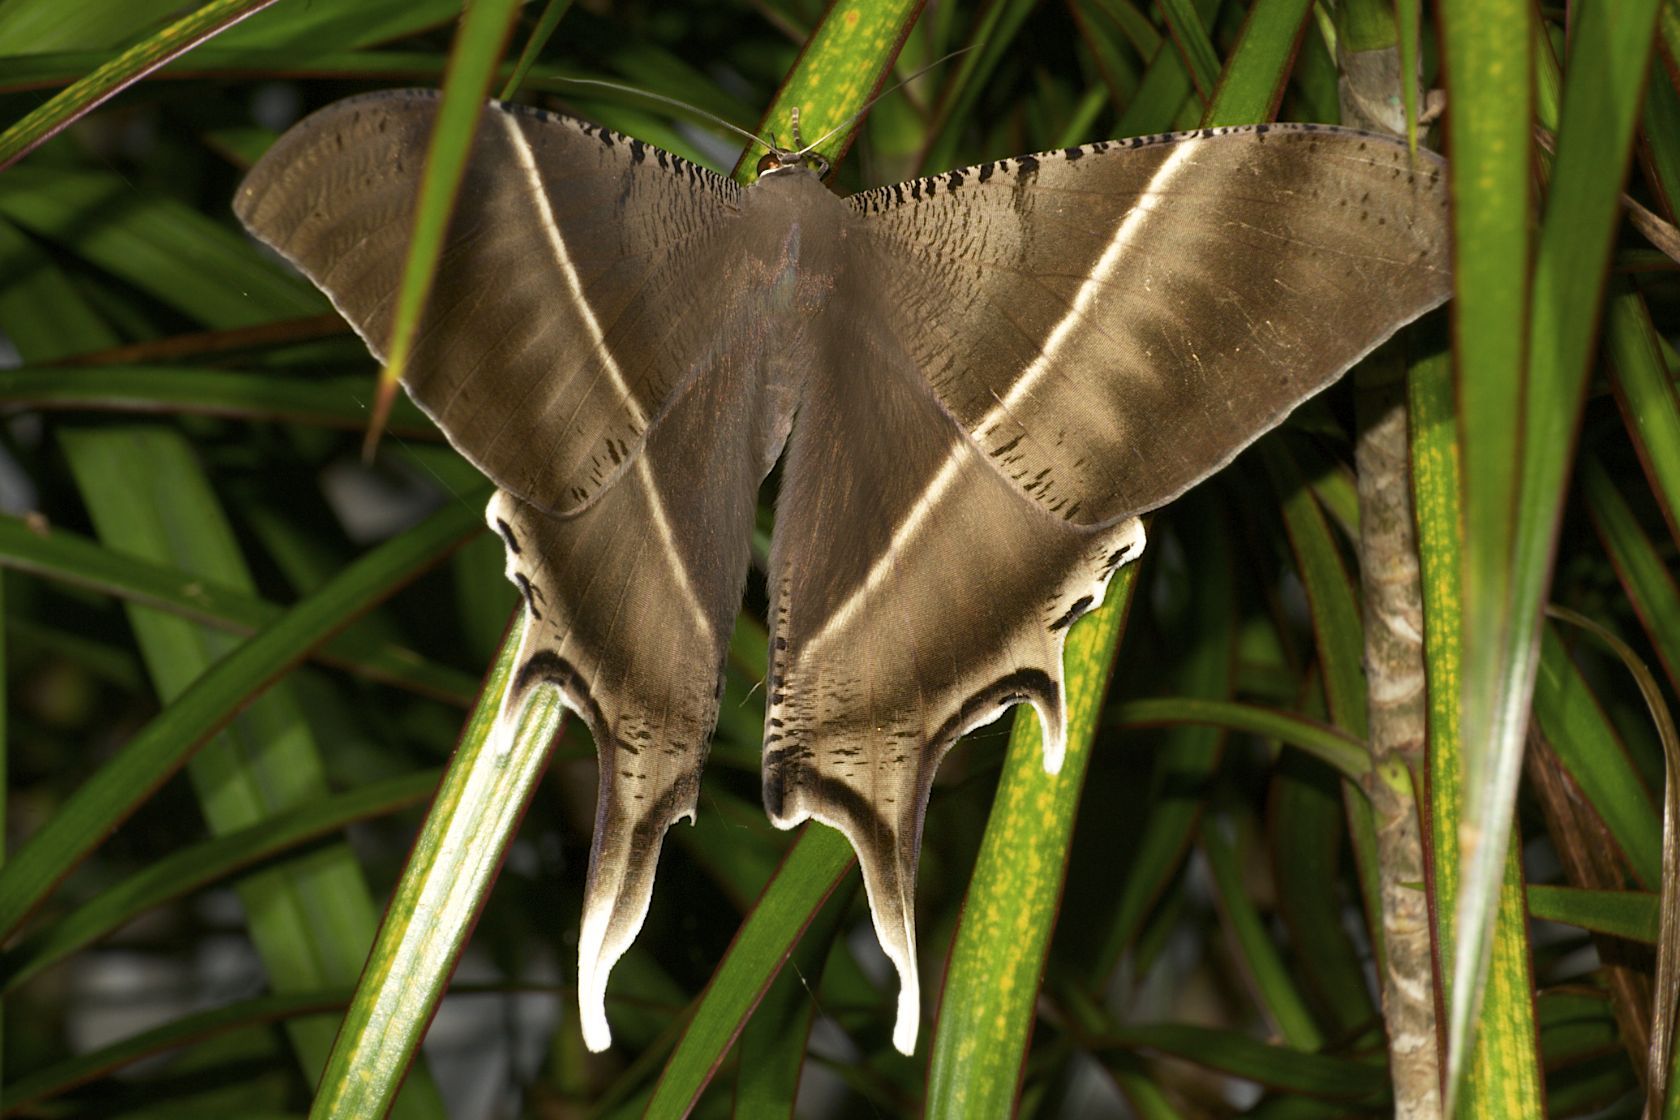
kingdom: Animalia
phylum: Arthropoda
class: Insecta
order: Lepidoptera
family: Uraniidae
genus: Lyssa
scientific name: Lyssa zampa
